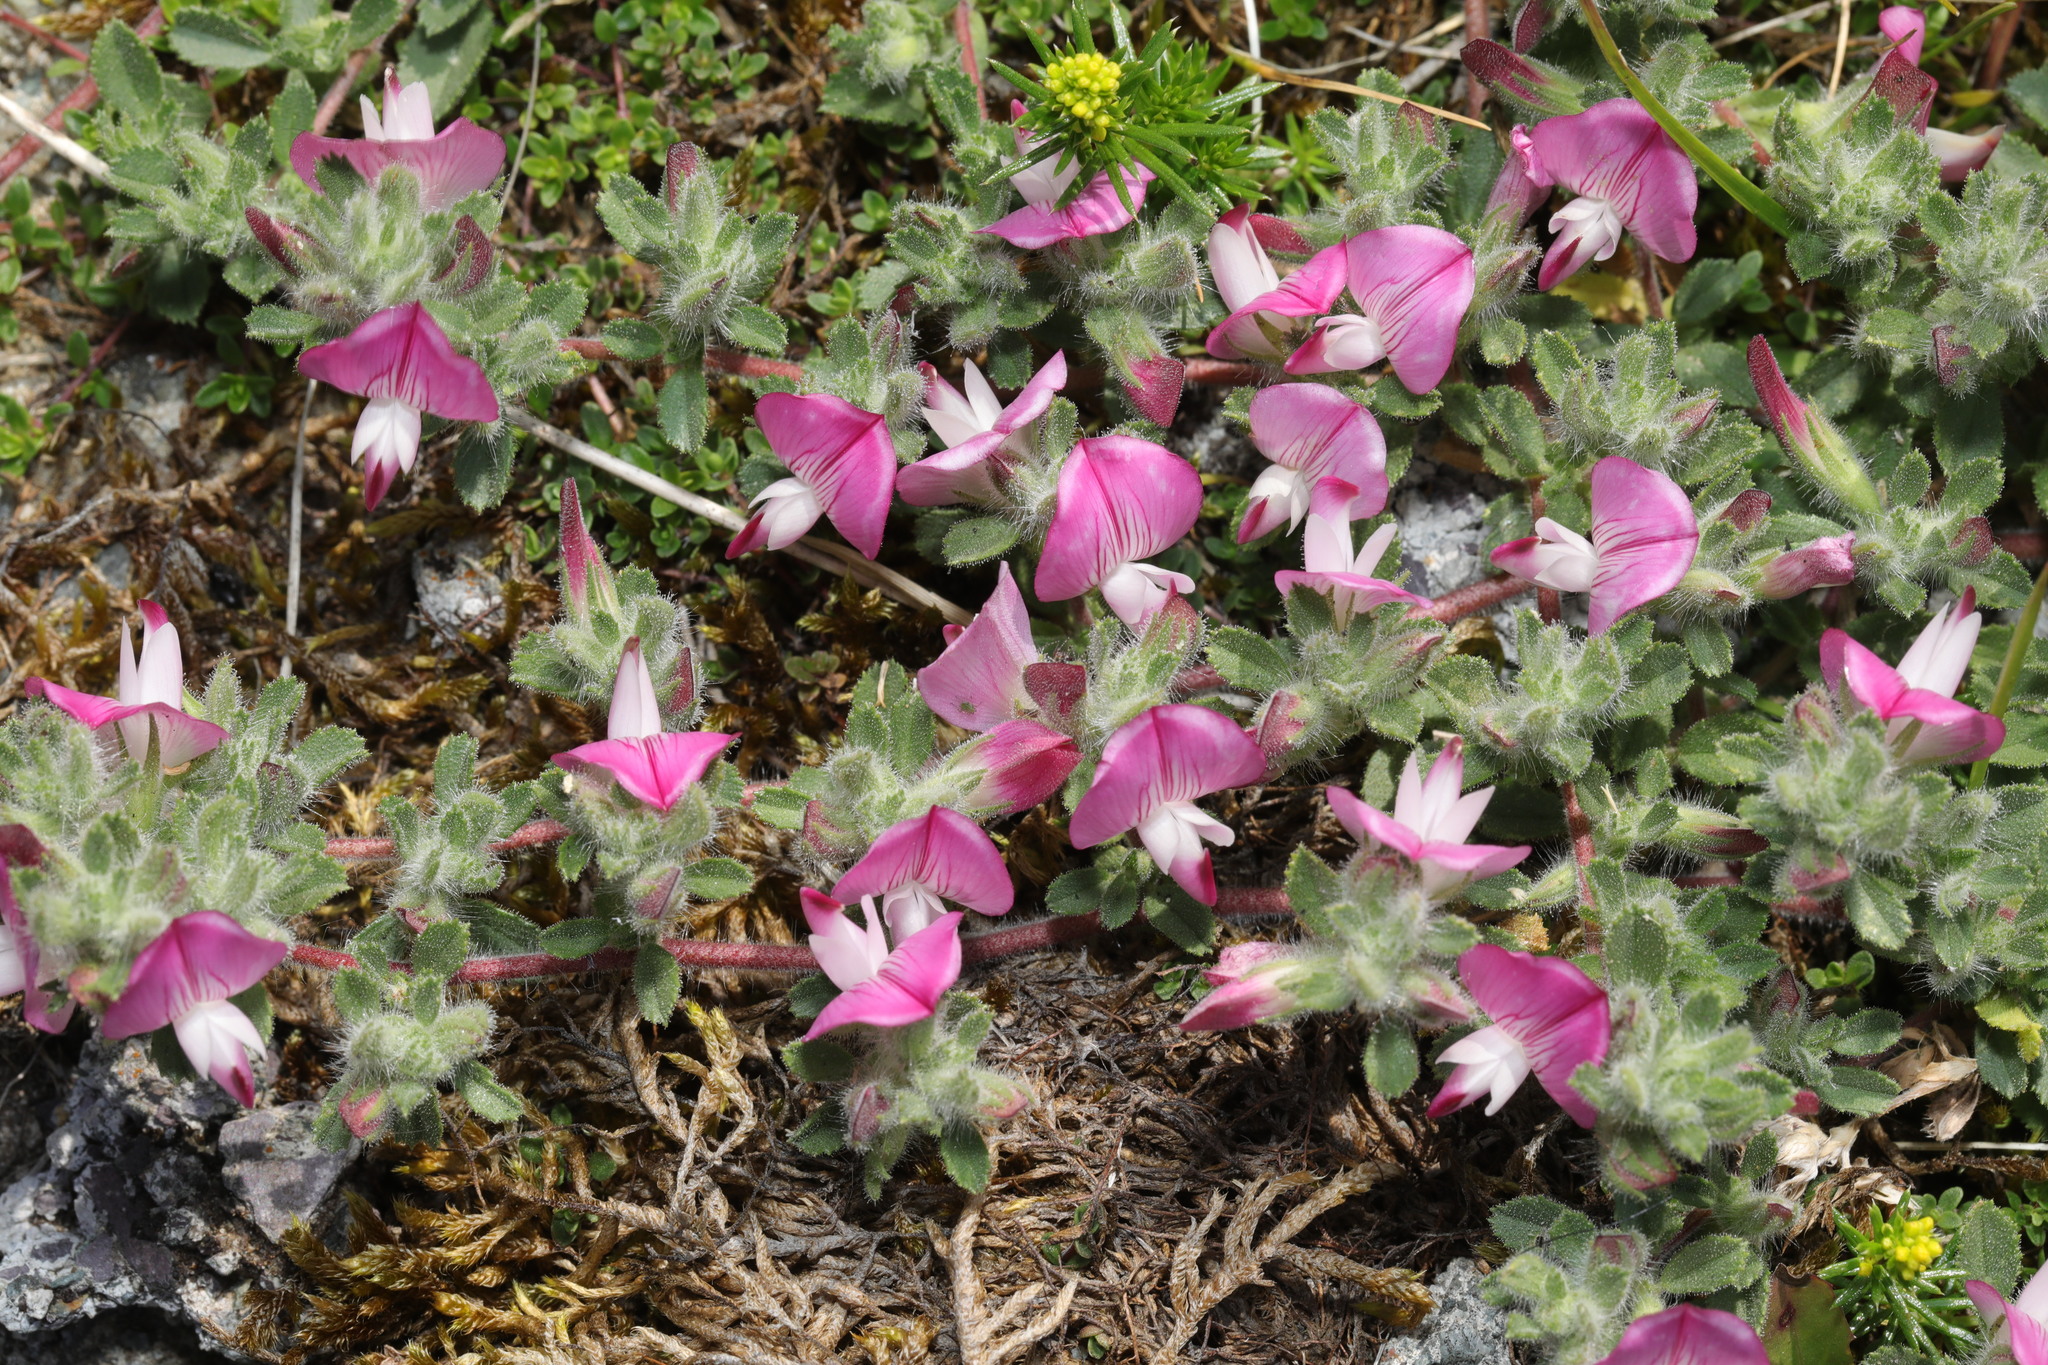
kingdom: Plantae
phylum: Tracheophyta
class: Magnoliopsida
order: Fabales
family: Fabaceae
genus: Ononis
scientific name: Ononis spinosa
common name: Spiny restharrow
